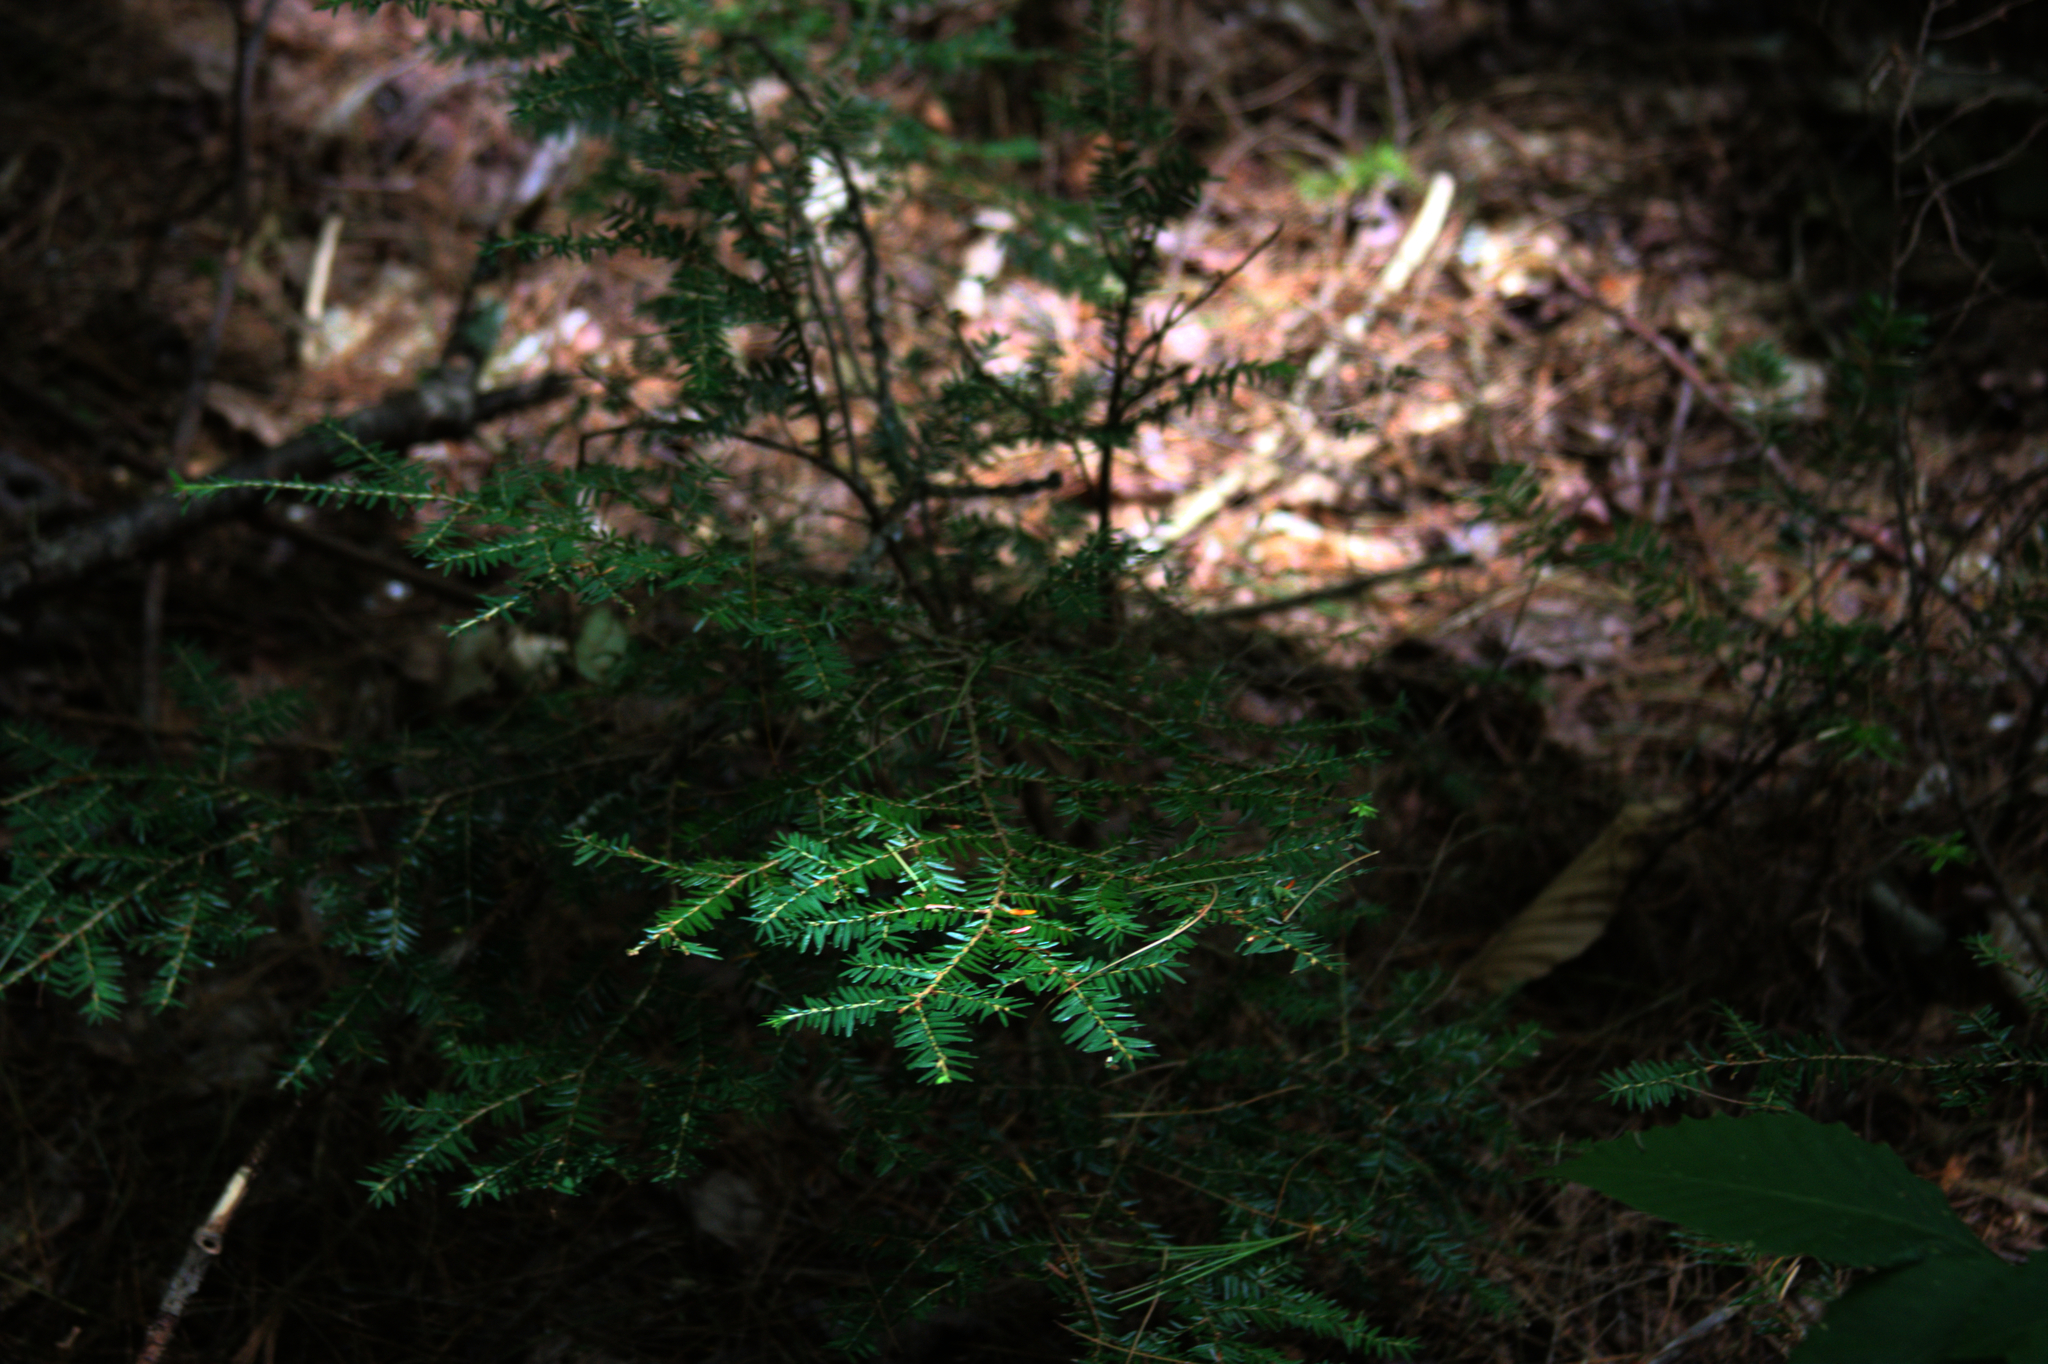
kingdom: Plantae
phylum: Tracheophyta
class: Pinopsida
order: Pinales
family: Pinaceae
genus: Tsuga
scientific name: Tsuga canadensis
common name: Eastern hemlock
